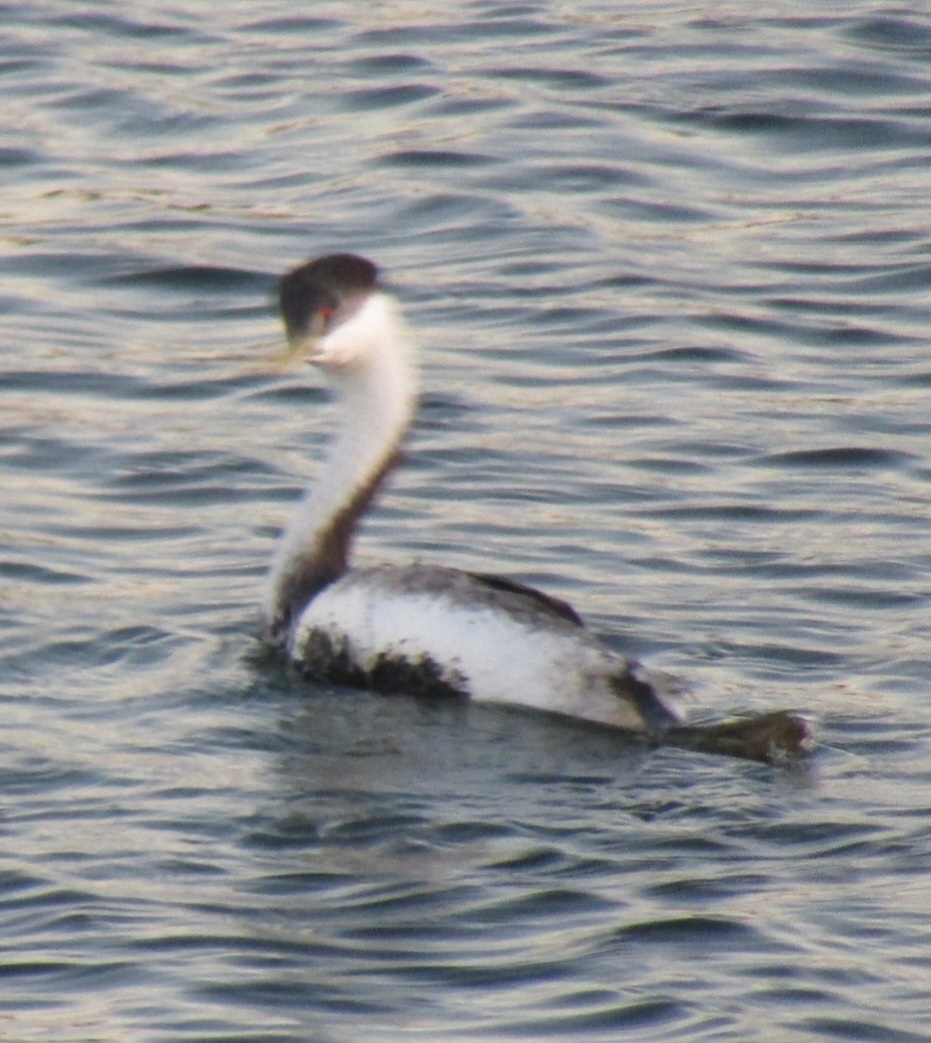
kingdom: Animalia
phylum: Chordata
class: Aves
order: Podicipediformes
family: Podicipedidae
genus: Aechmophorus
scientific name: Aechmophorus occidentalis
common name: Western grebe
